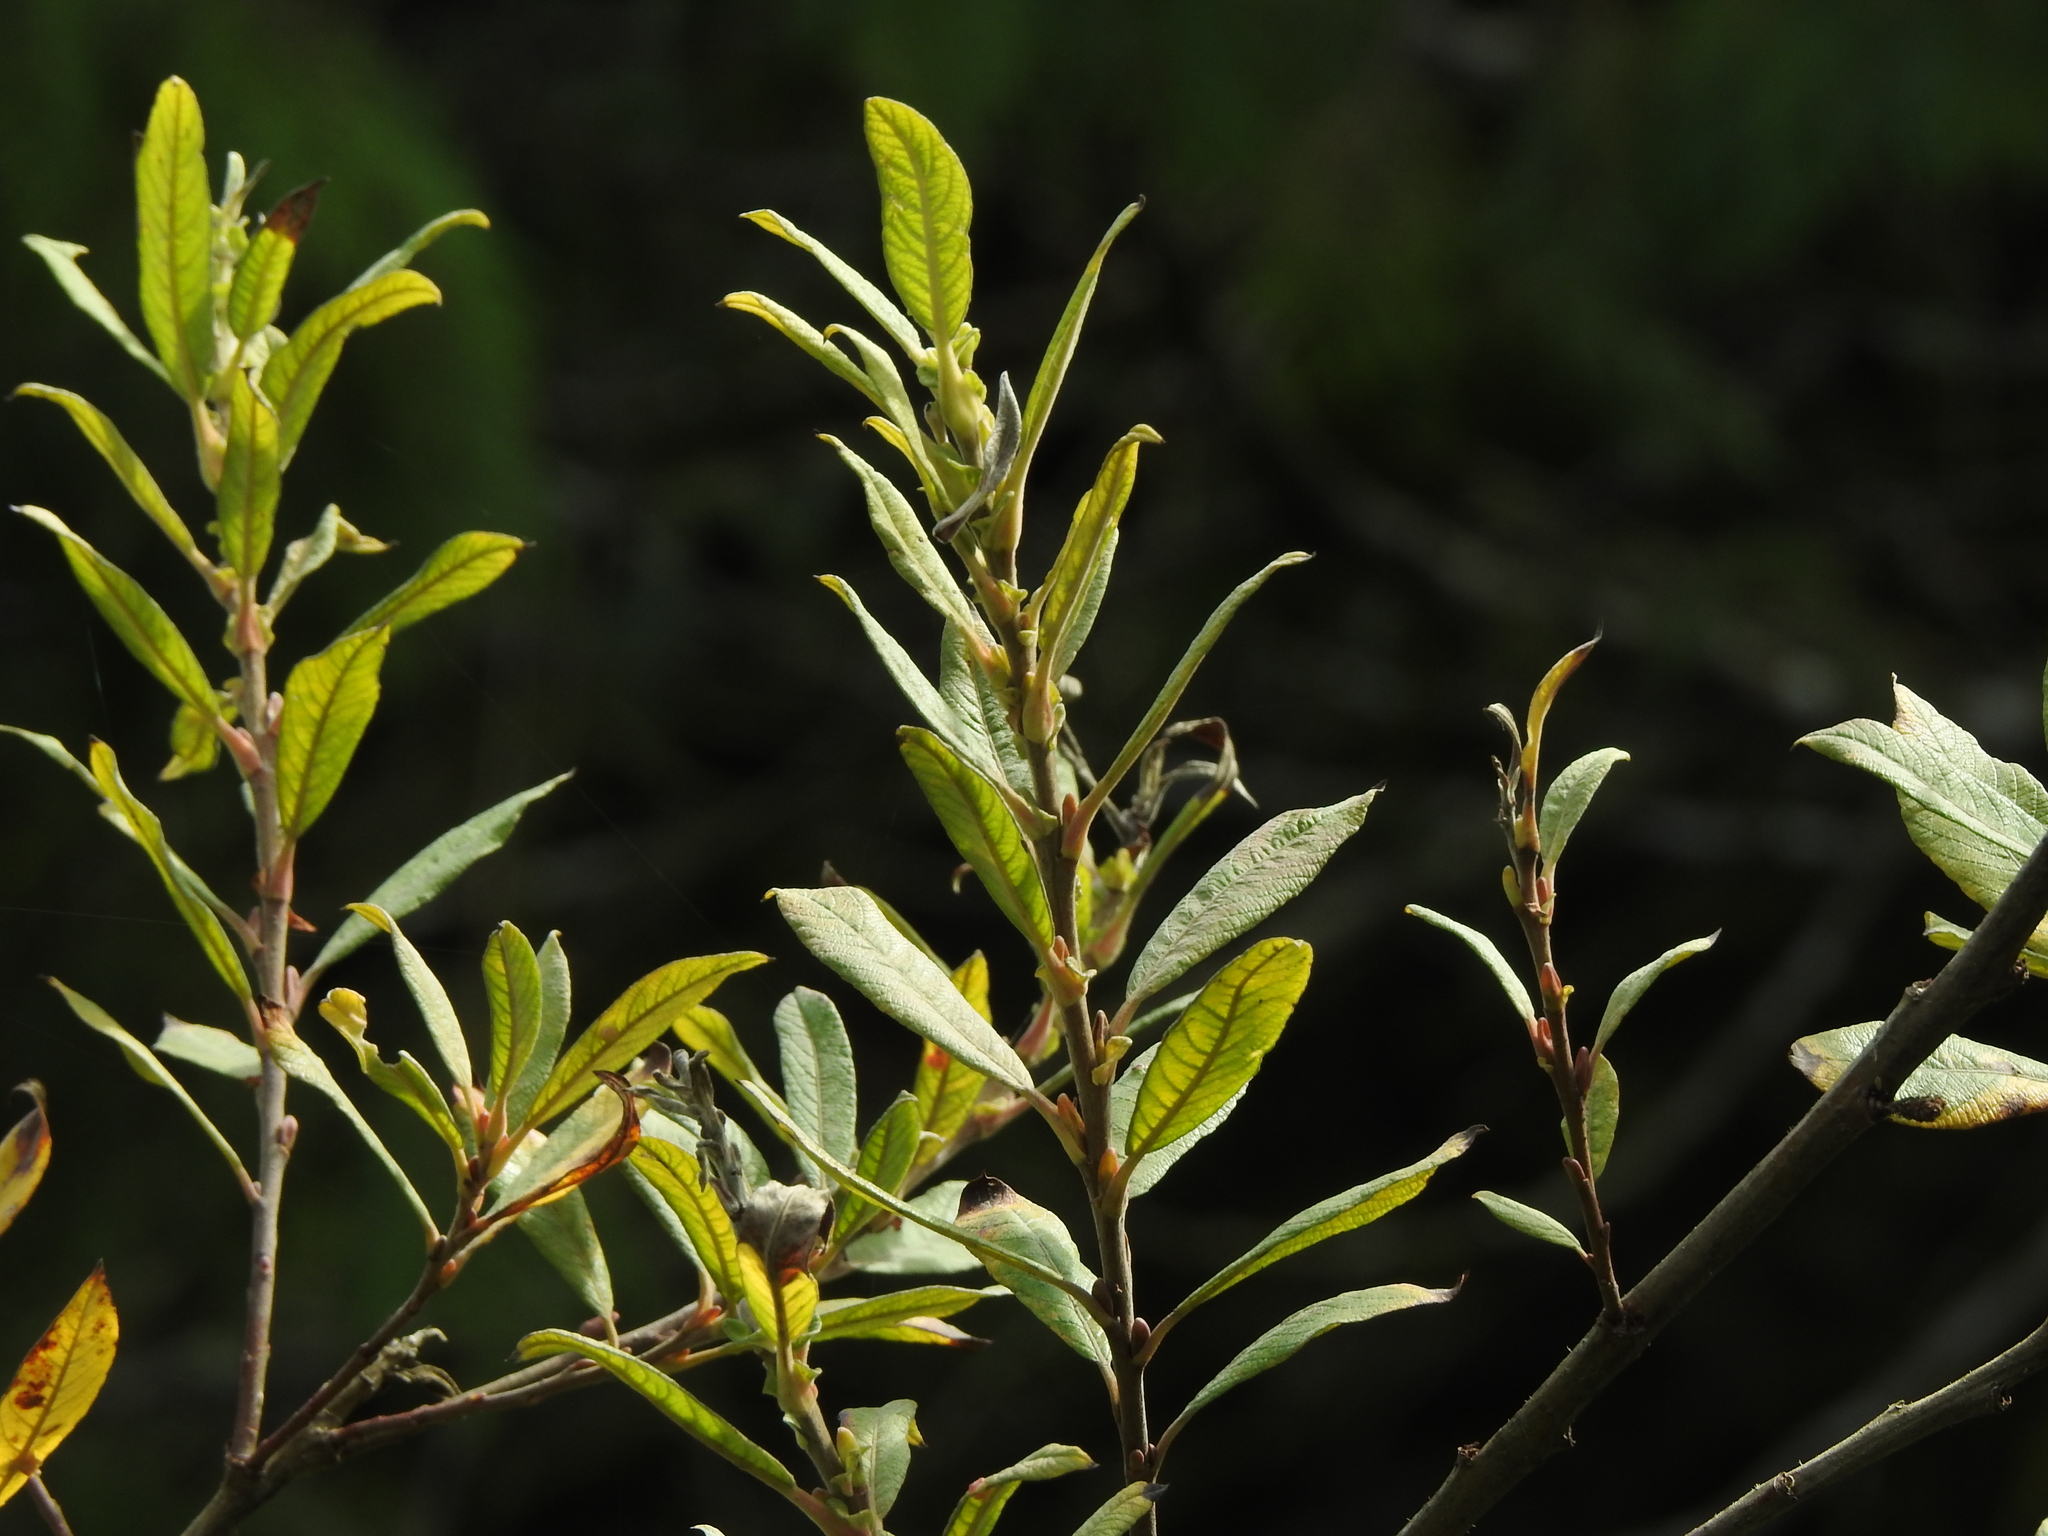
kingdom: Plantae
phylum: Tracheophyta
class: Magnoliopsida
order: Malpighiales
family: Salicaceae
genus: Salix
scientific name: Salix sitchensis
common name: Sitka willow
